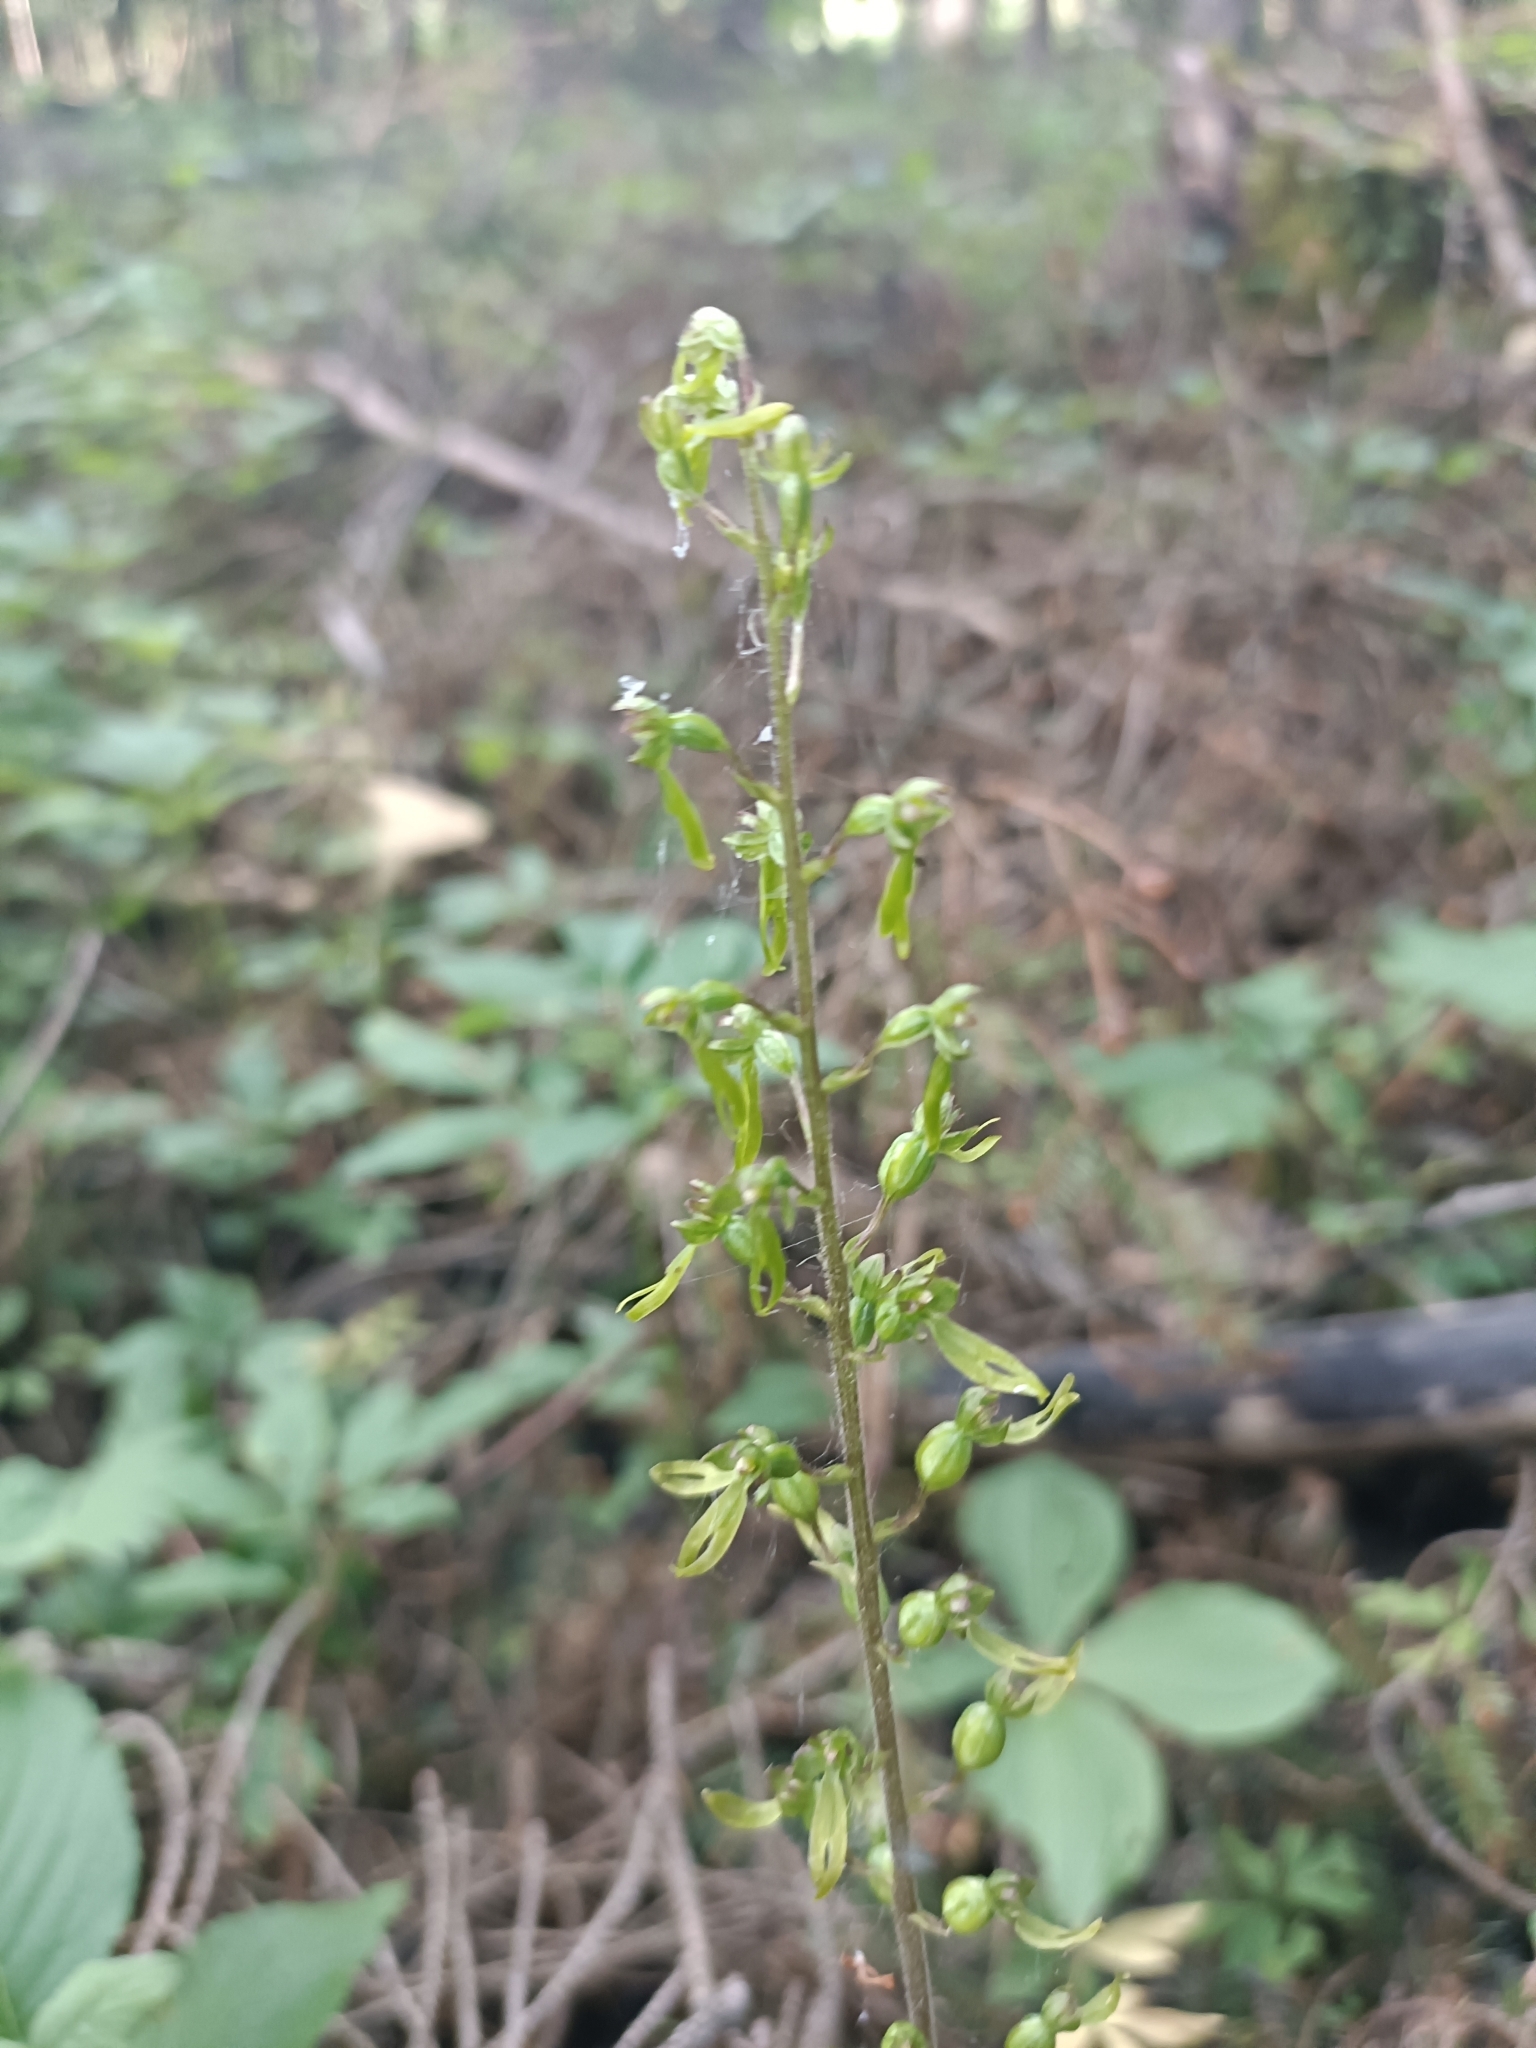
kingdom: Plantae
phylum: Tracheophyta
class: Liliopsida
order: Asparagales
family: Orchidaceae
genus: Neottia
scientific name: Neottia ovata
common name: Common twayblade
